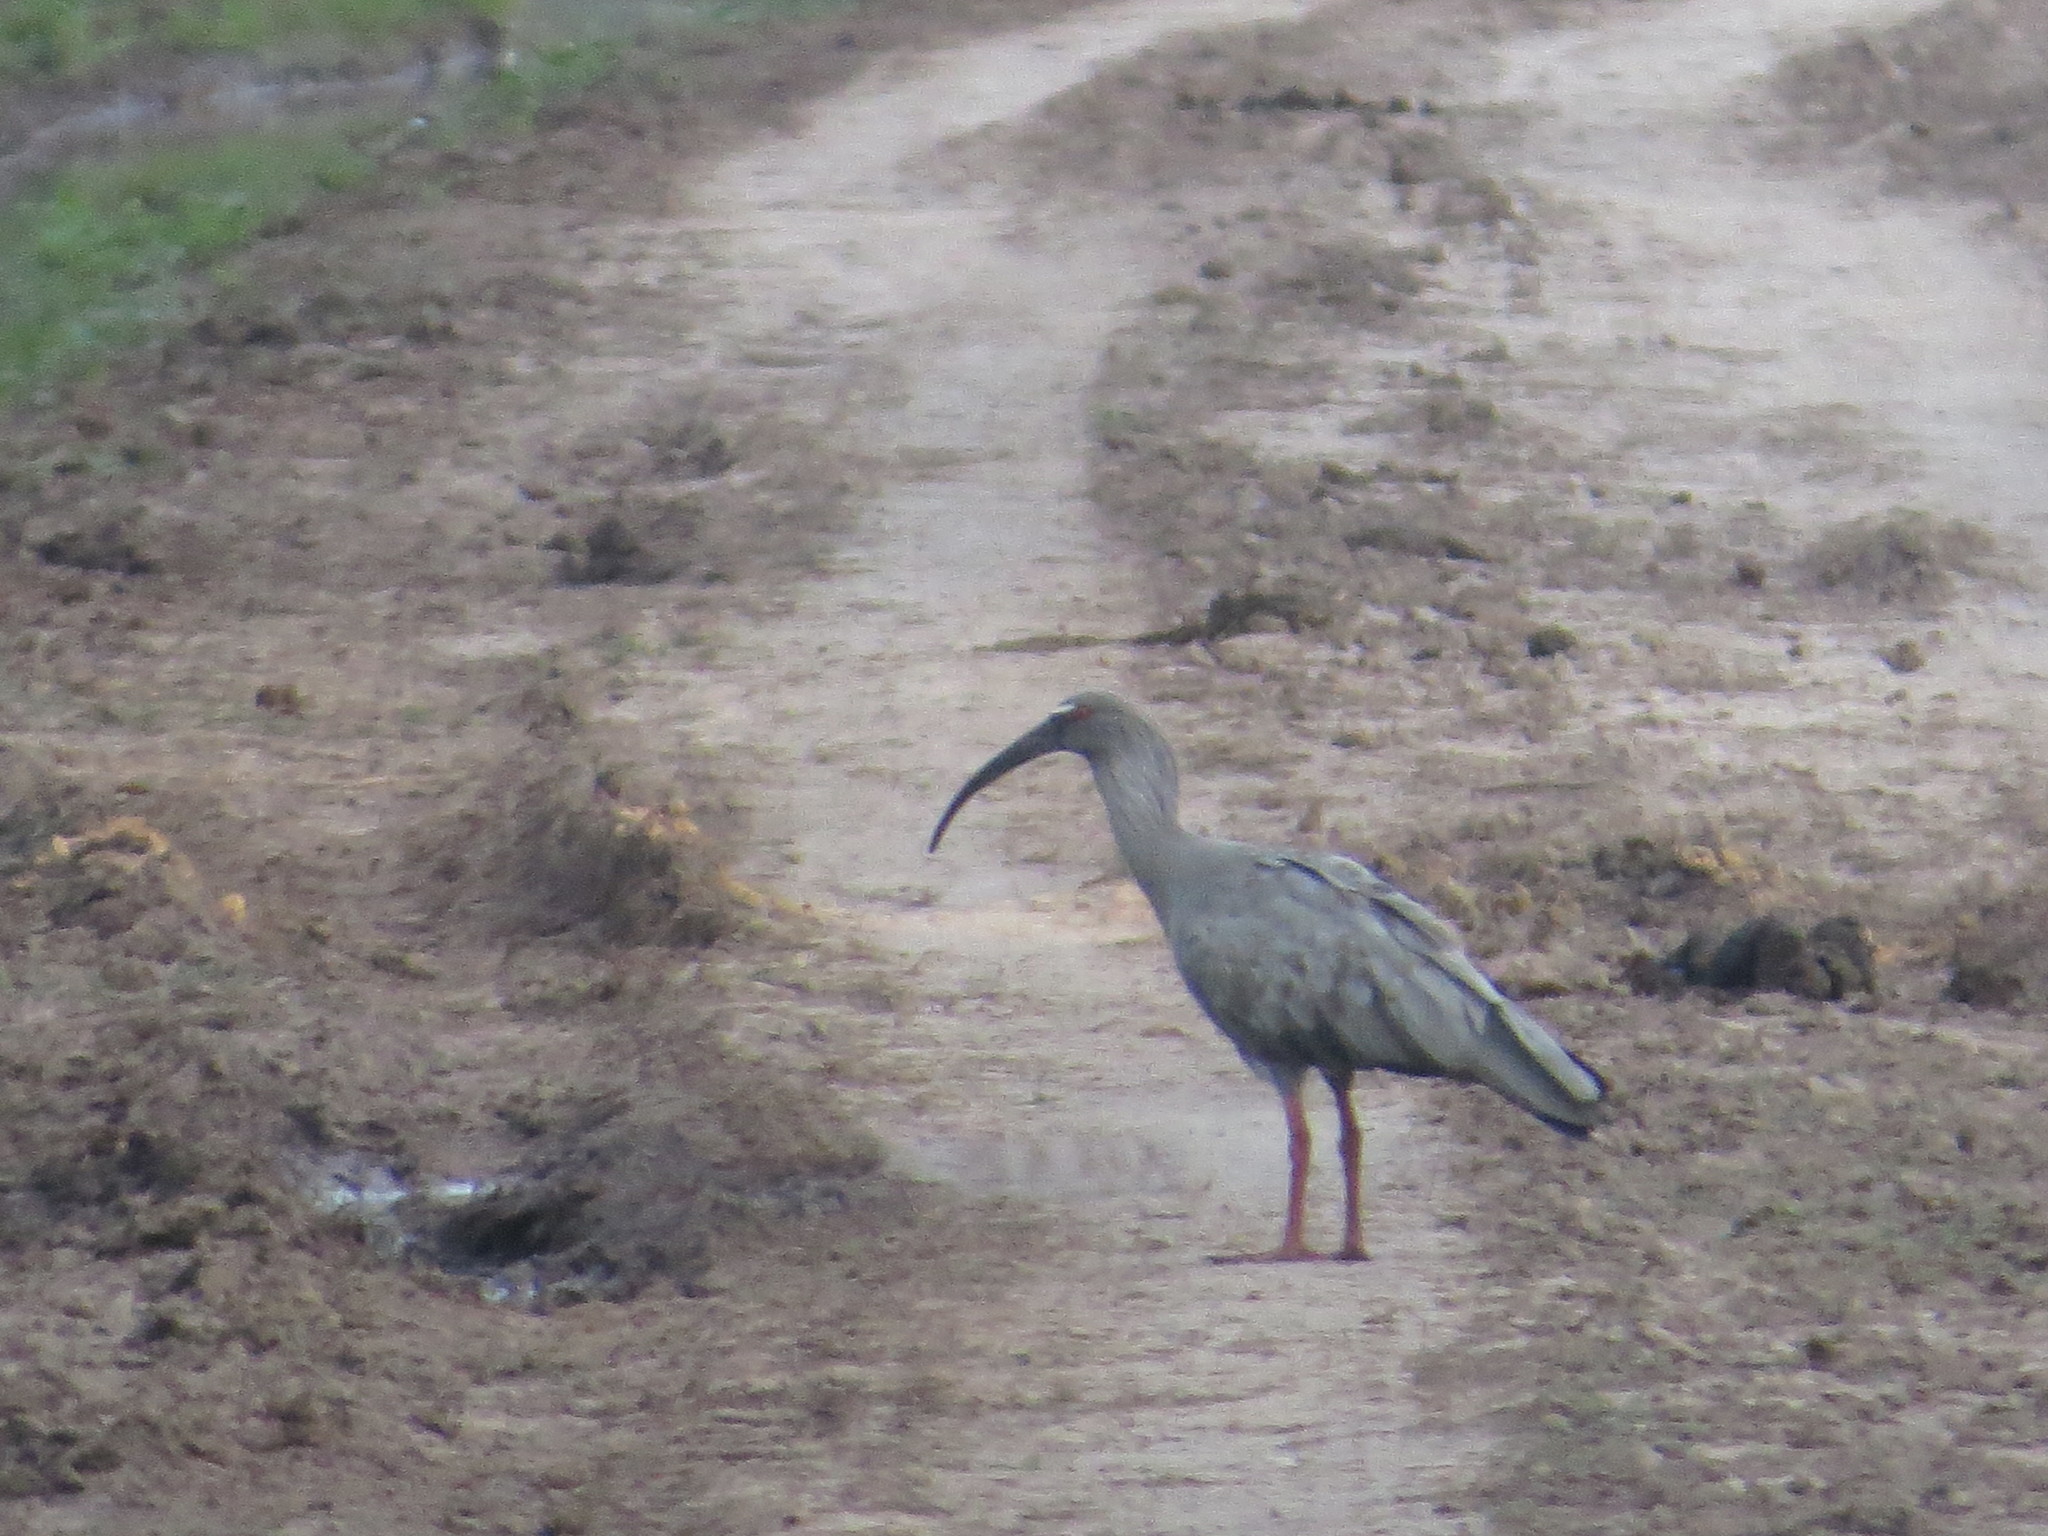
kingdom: Animalia
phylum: Chordata
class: Aves
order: Pelecaniformes
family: Threskiornithidae
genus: Theristicus
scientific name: Theristicus caerulescens
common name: Plumbeous ibis
